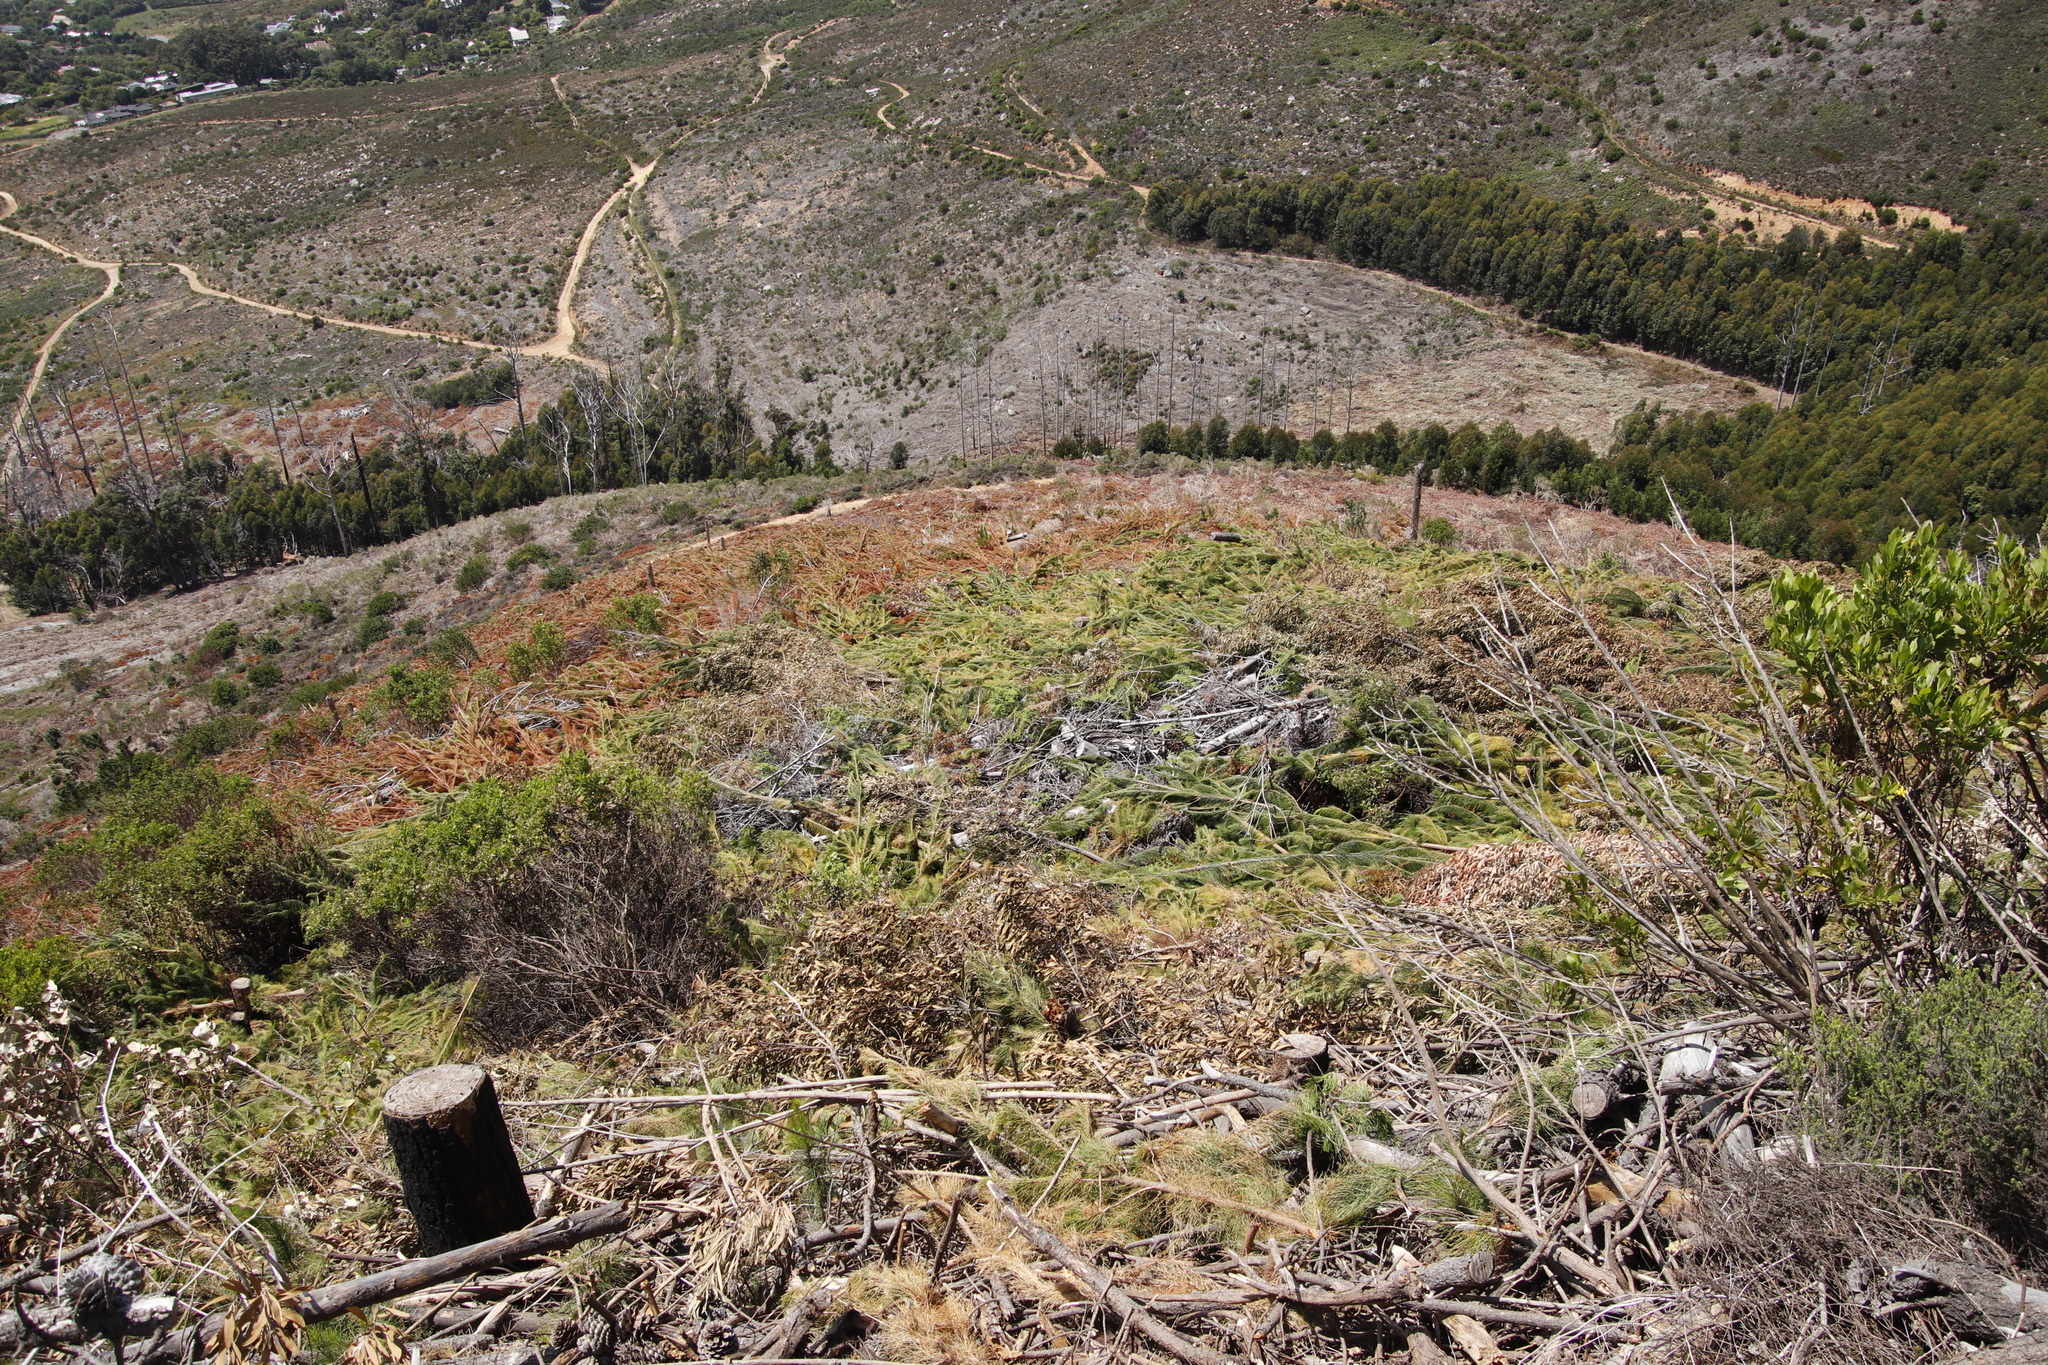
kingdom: Plantae
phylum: Tracheophyta
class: Pinopsida
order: Pinales
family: Pinaceae
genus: Pinus
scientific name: Pinus radiata
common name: Monterey pine
